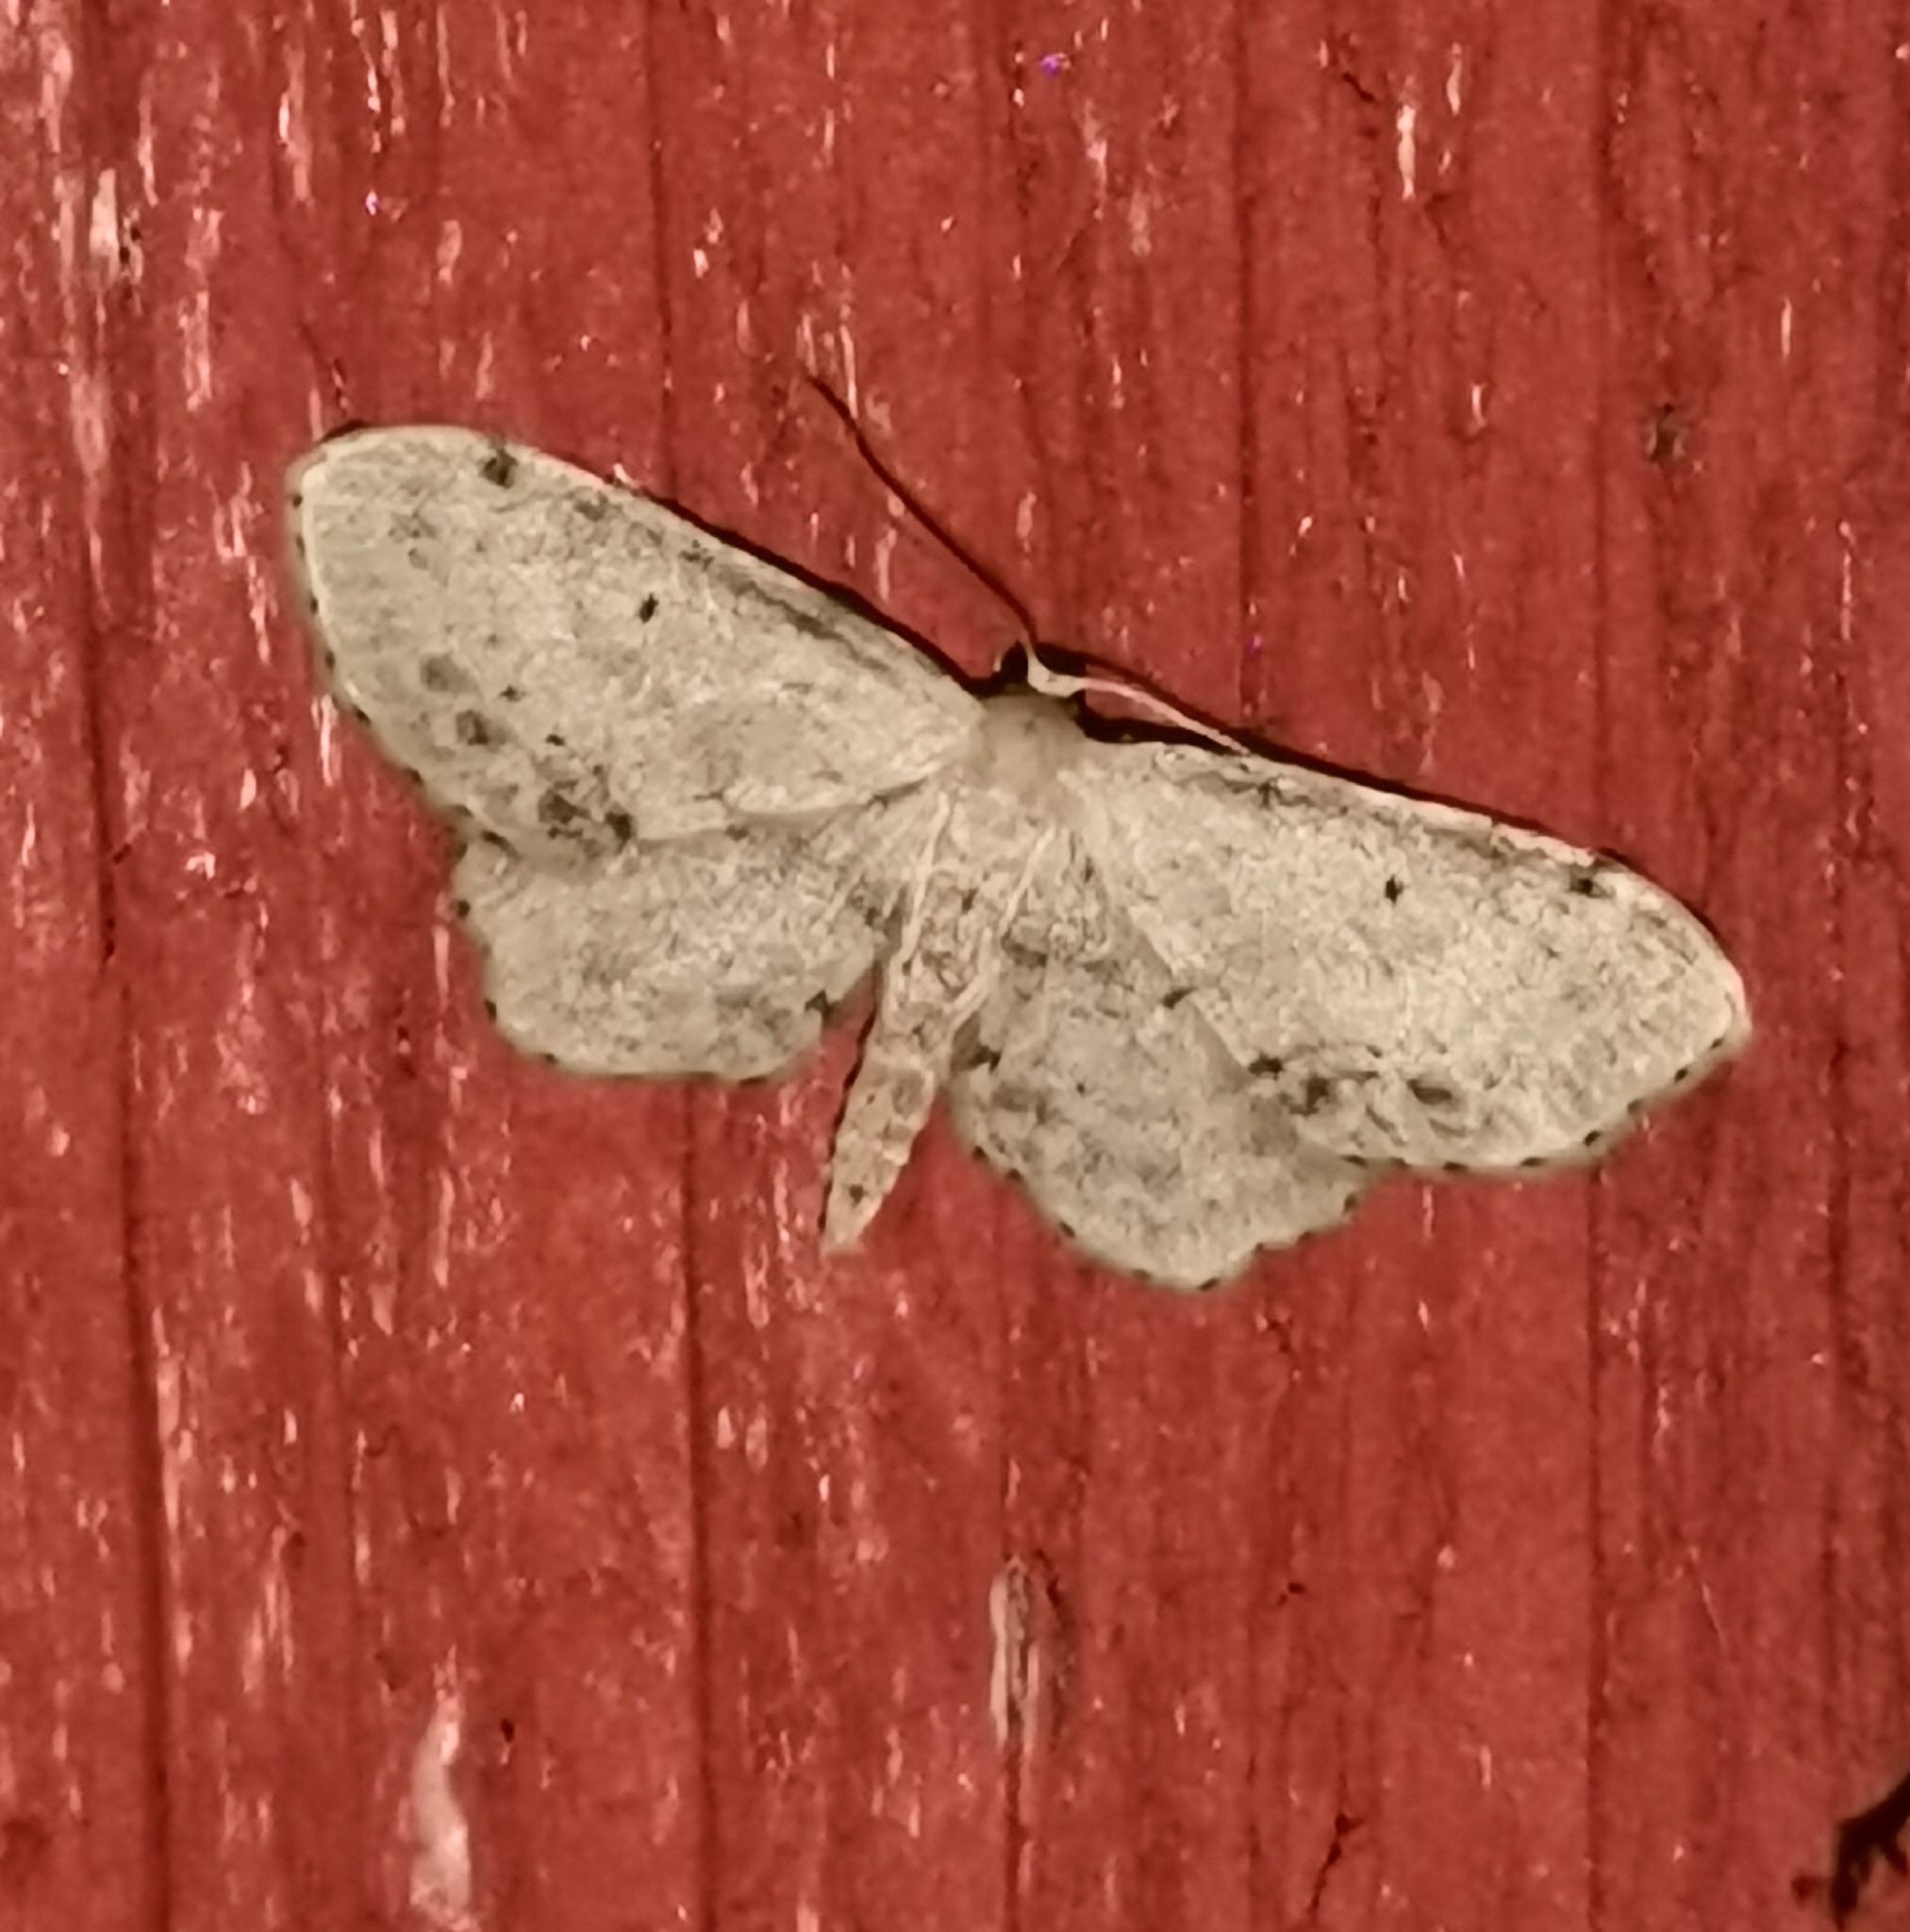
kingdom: Animalia
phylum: Arthropoda
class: Insecta
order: Lepidoptera
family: Geometridae
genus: Idaea
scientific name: Idaea dimidiata
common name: Single-dotted wave
